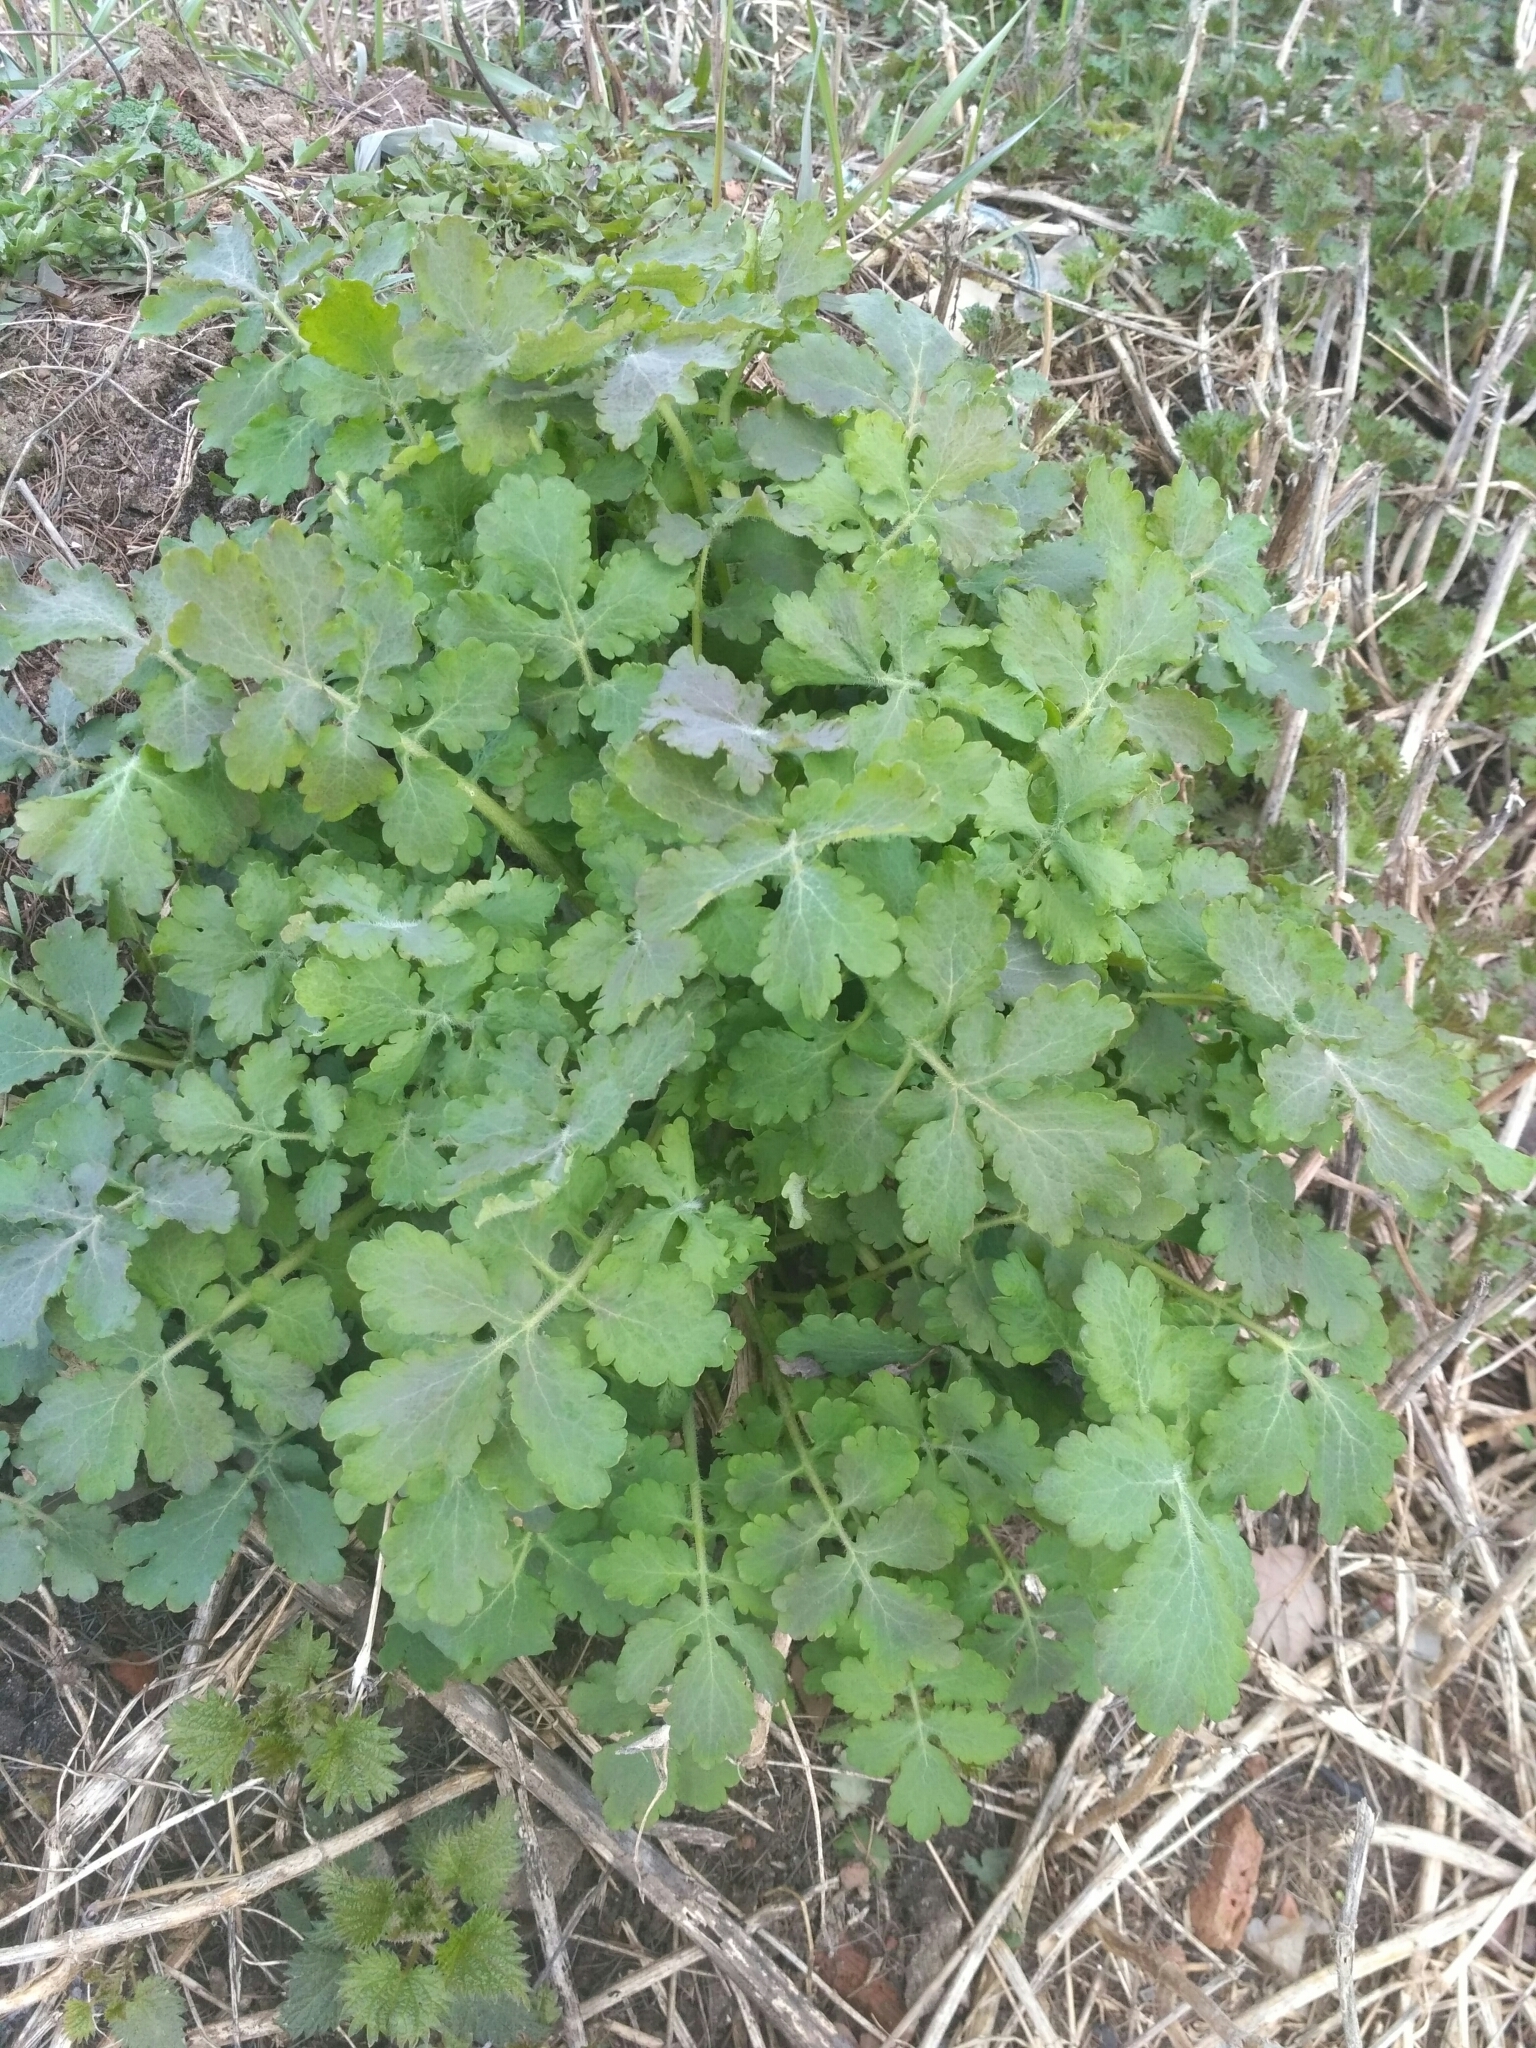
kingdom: Plantae
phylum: Tracheophyta
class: Magnoliopsida
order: Ranunculales
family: Papaveraceae
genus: Chelidonium
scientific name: Chelidonium majus
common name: Greater celandine
